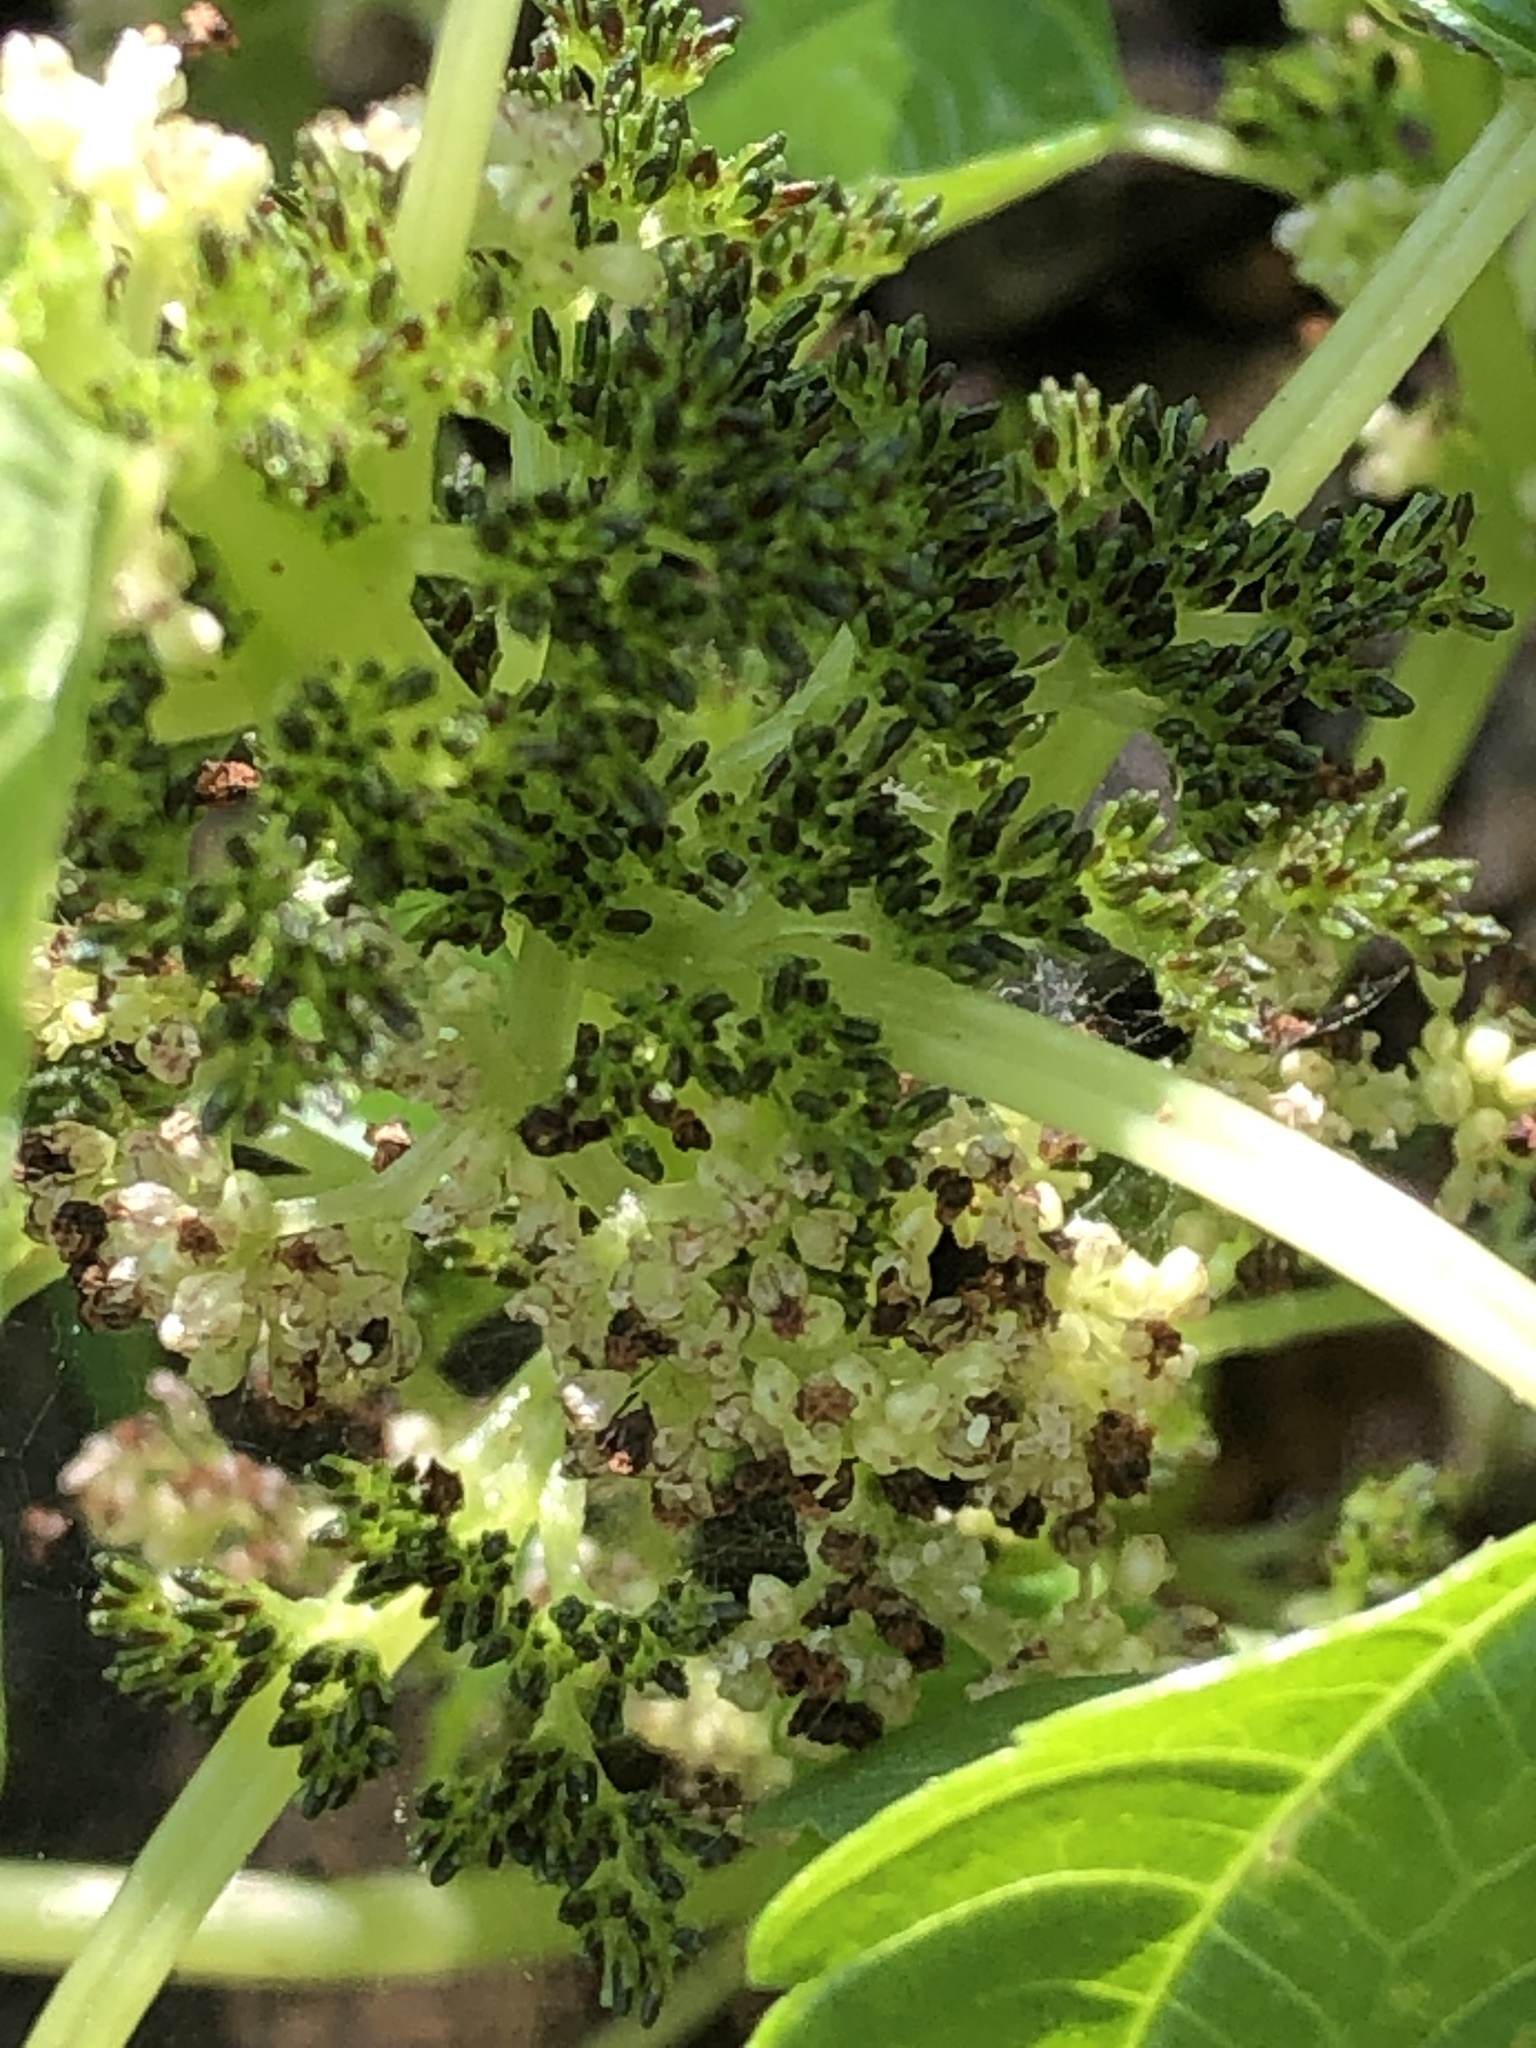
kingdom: Plantae
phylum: Tracheophyta
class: Magnoliopsida
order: Rosales
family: Urticaceae
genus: Pilea
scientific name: Pilea fontana
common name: Clearweed
